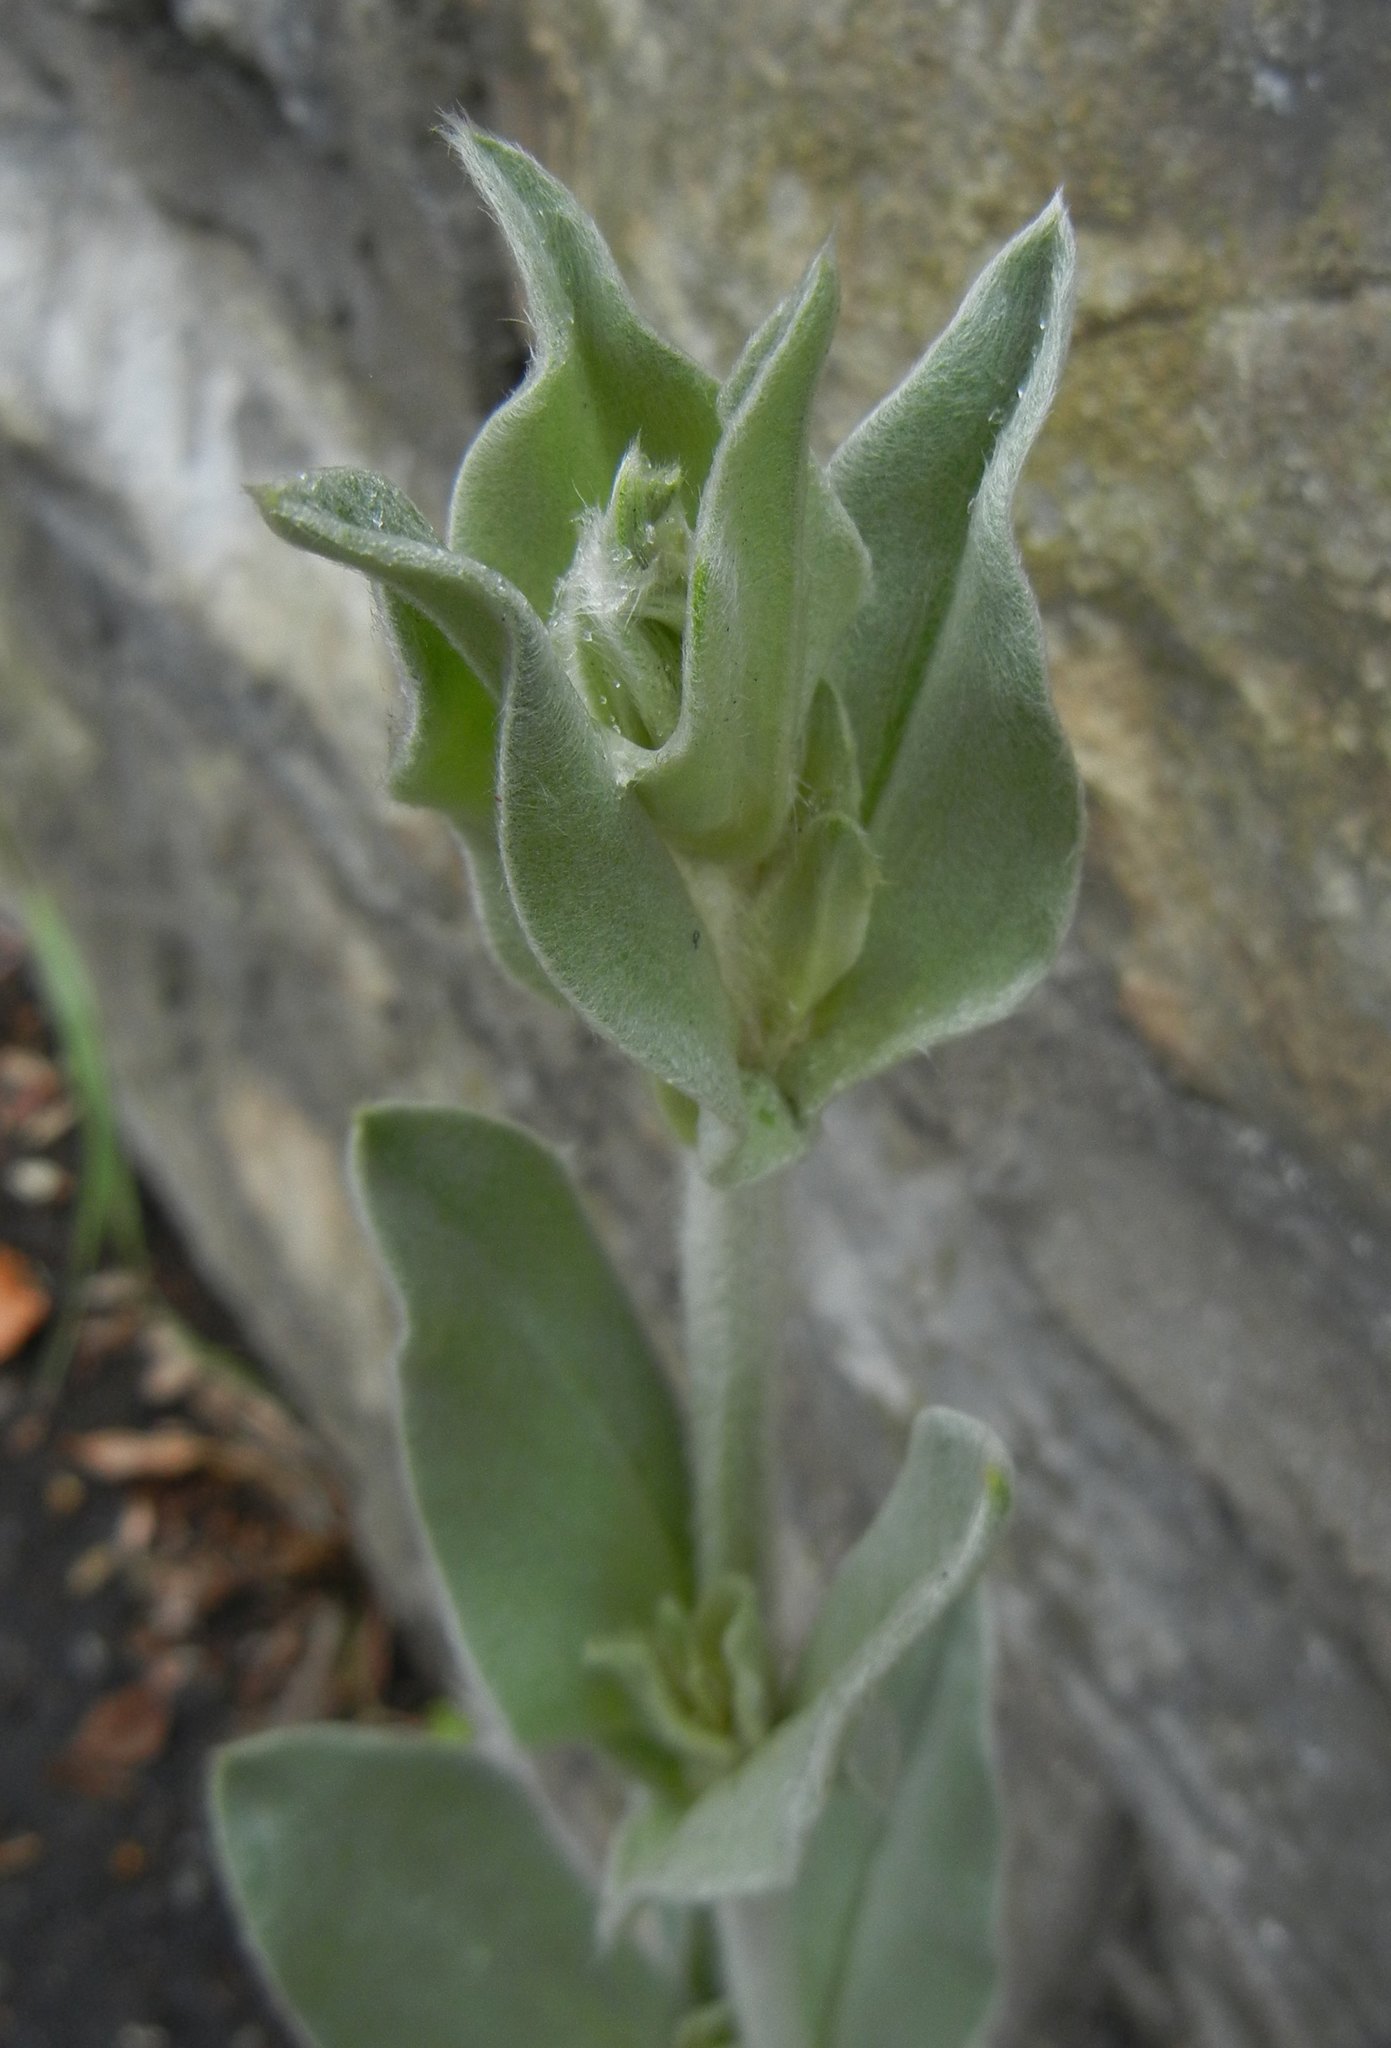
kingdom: Plantae
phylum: Tracheophyta
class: Magnoliopsida
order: Caryophyllales
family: Caryophyllaceae
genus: Silene
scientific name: Silene coronaria
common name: Rose campion
